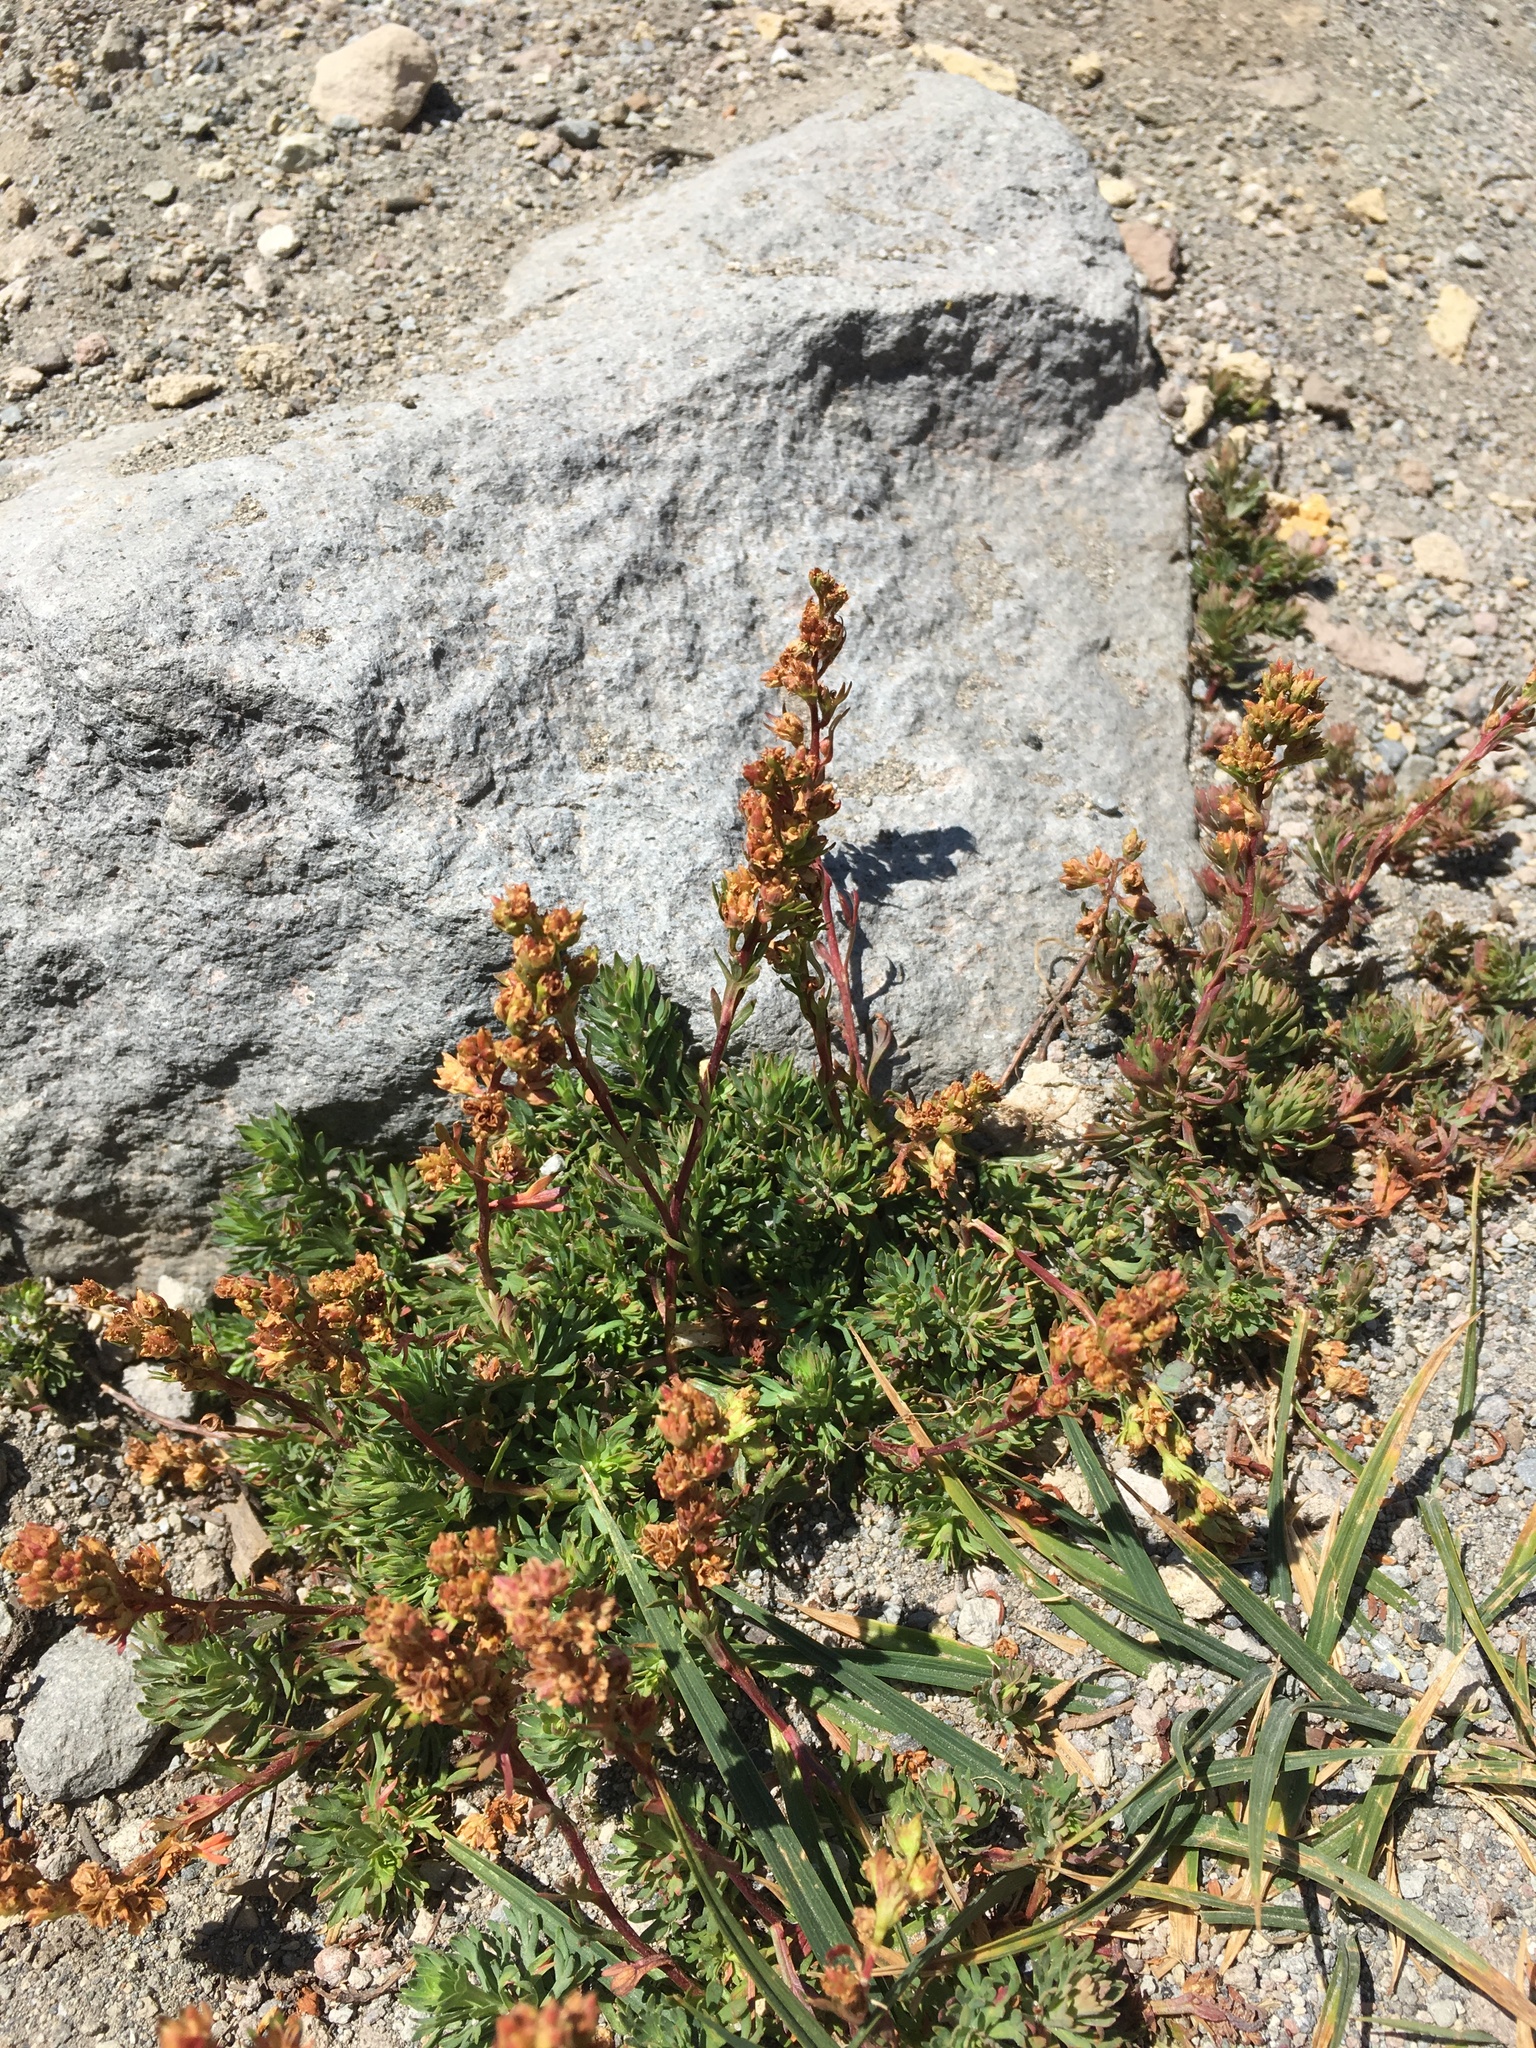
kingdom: Plantae
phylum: Tracheophyta
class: Magnoliopsida
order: Rosales
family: Rosaceae
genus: Luetkea
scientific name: Luetkea pectinata
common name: Partridgefoot
